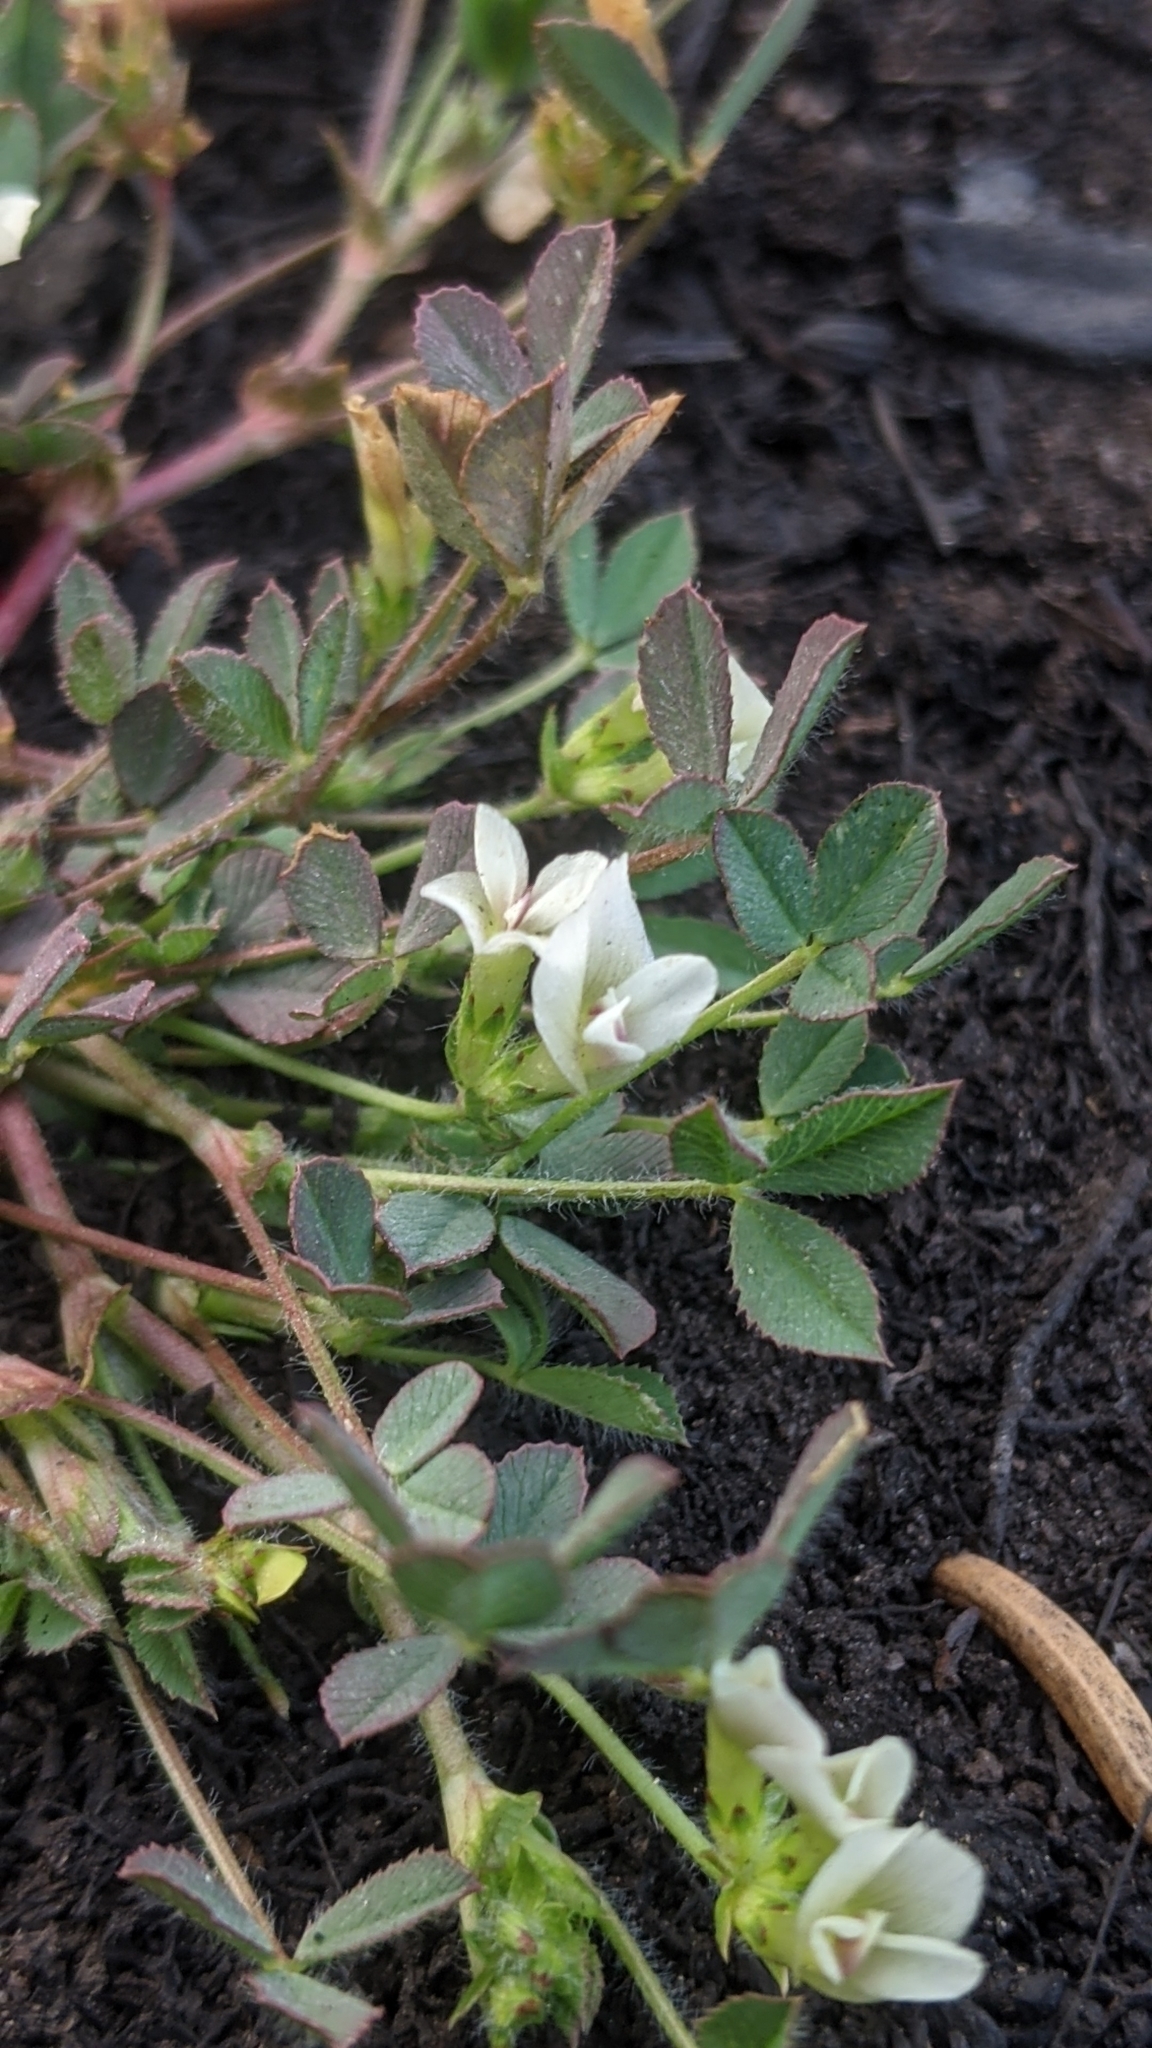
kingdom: Plantae
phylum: Tracheophyta
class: Magnoliopsida
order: Fabales
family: Fabaceae
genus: Trifolium
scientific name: Trifolium monanthum
